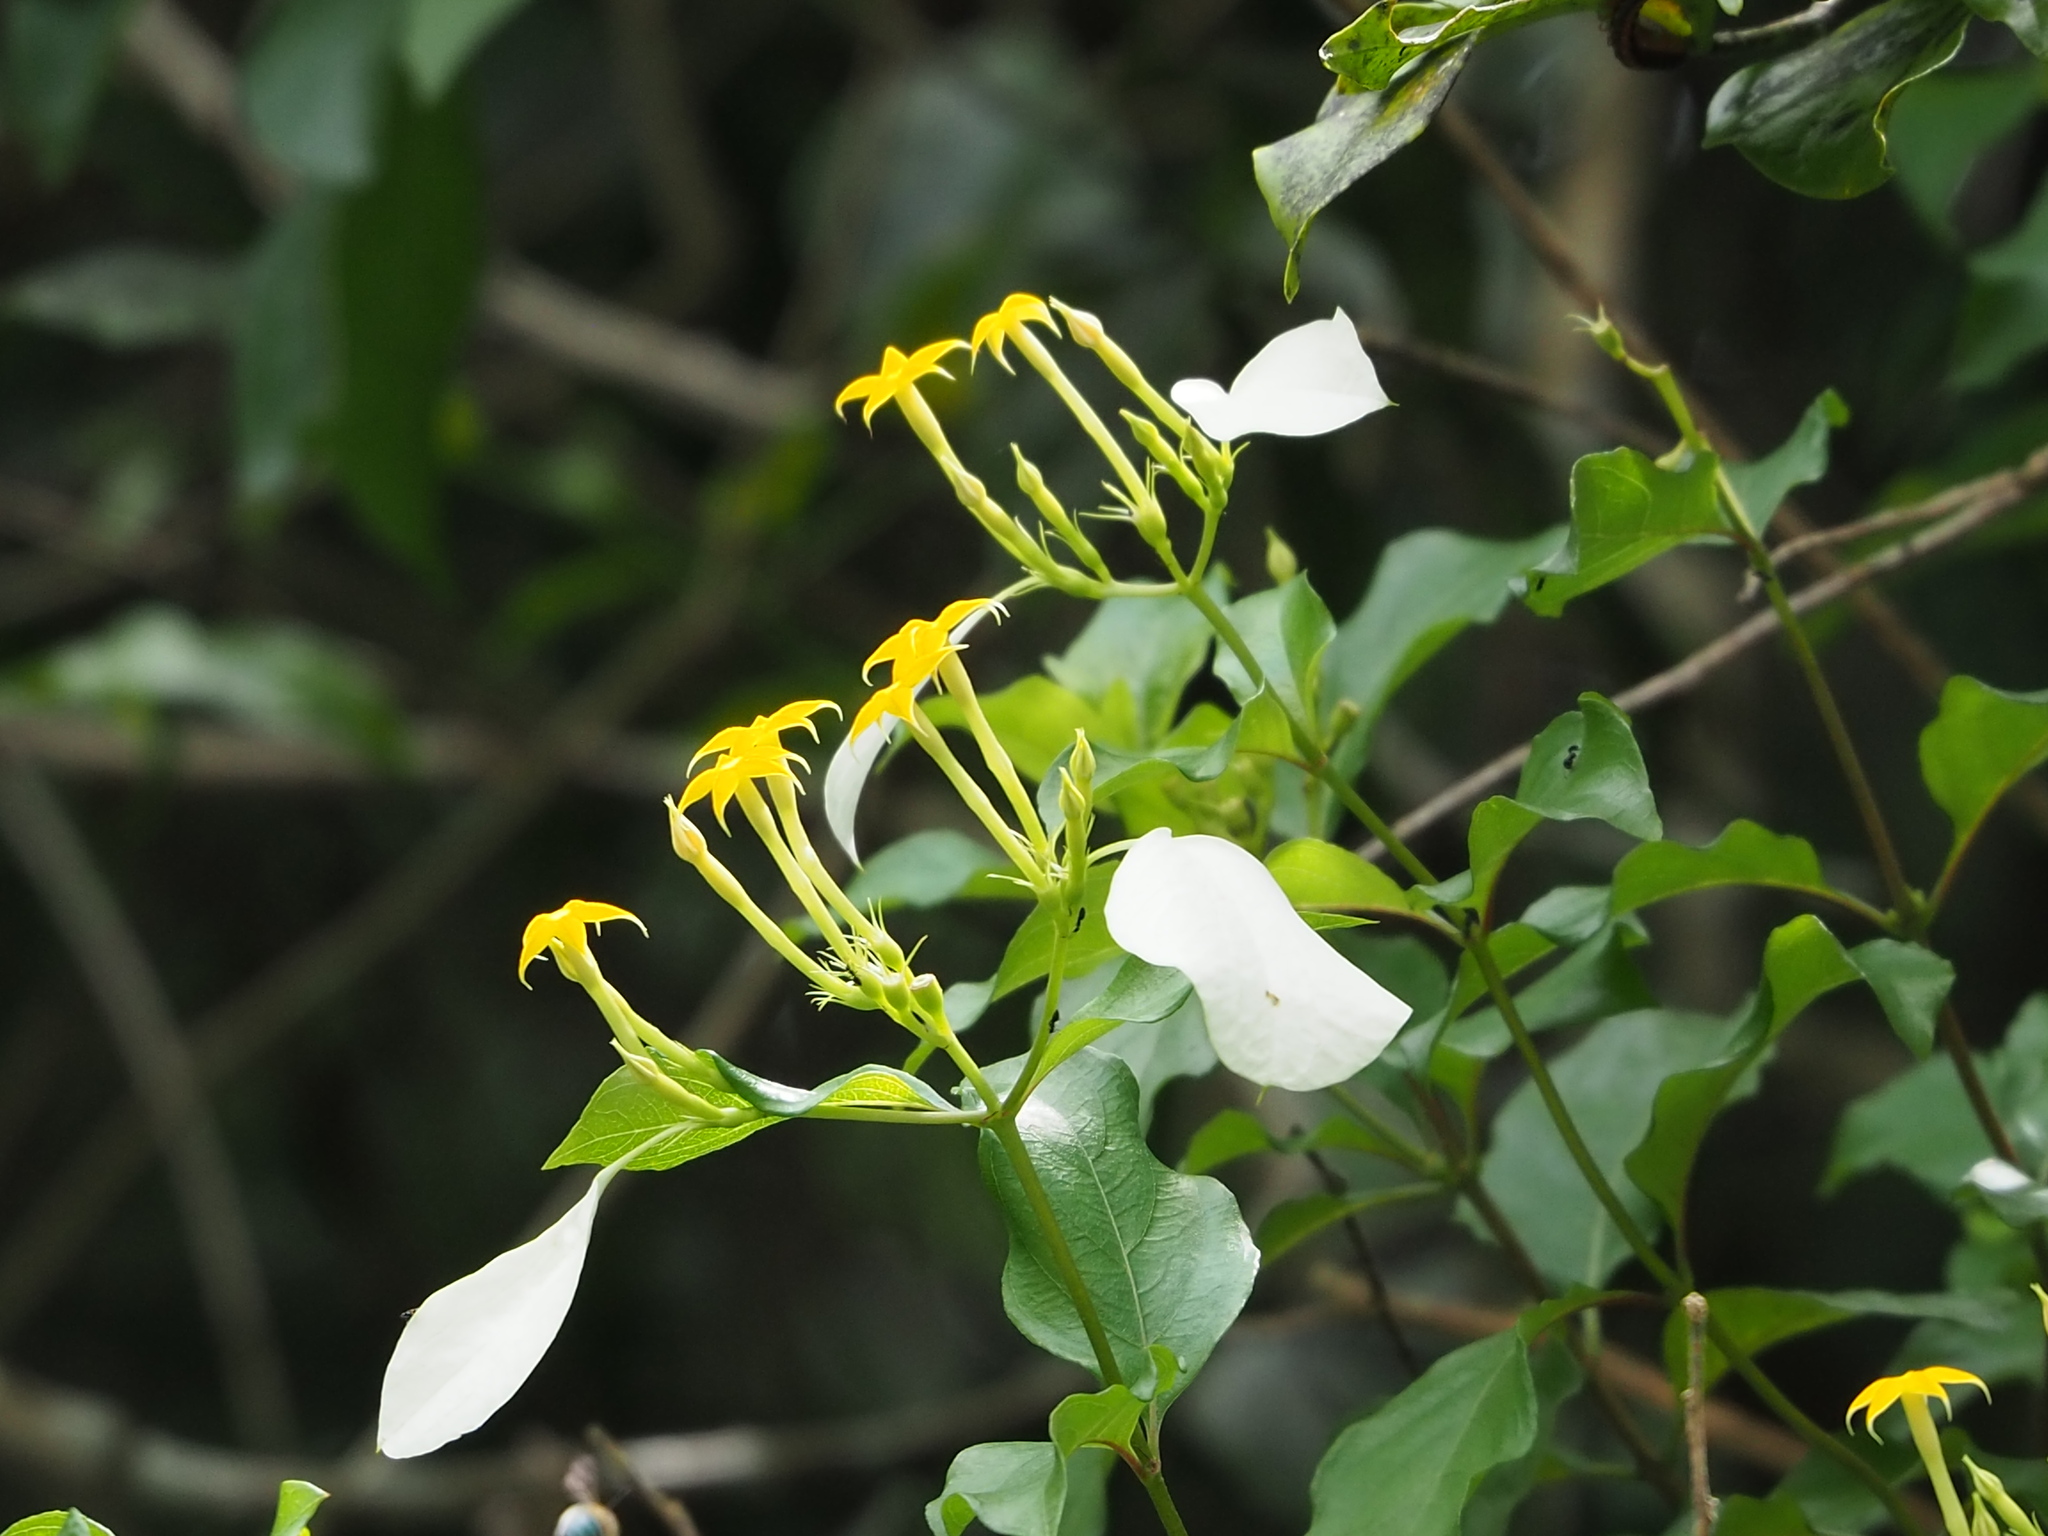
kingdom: Plantae
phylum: Tracheophyta
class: Magnoliopsida
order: Gentianales
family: Rubiaceae
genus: Mussaenda
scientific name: Mussaenda formosana
